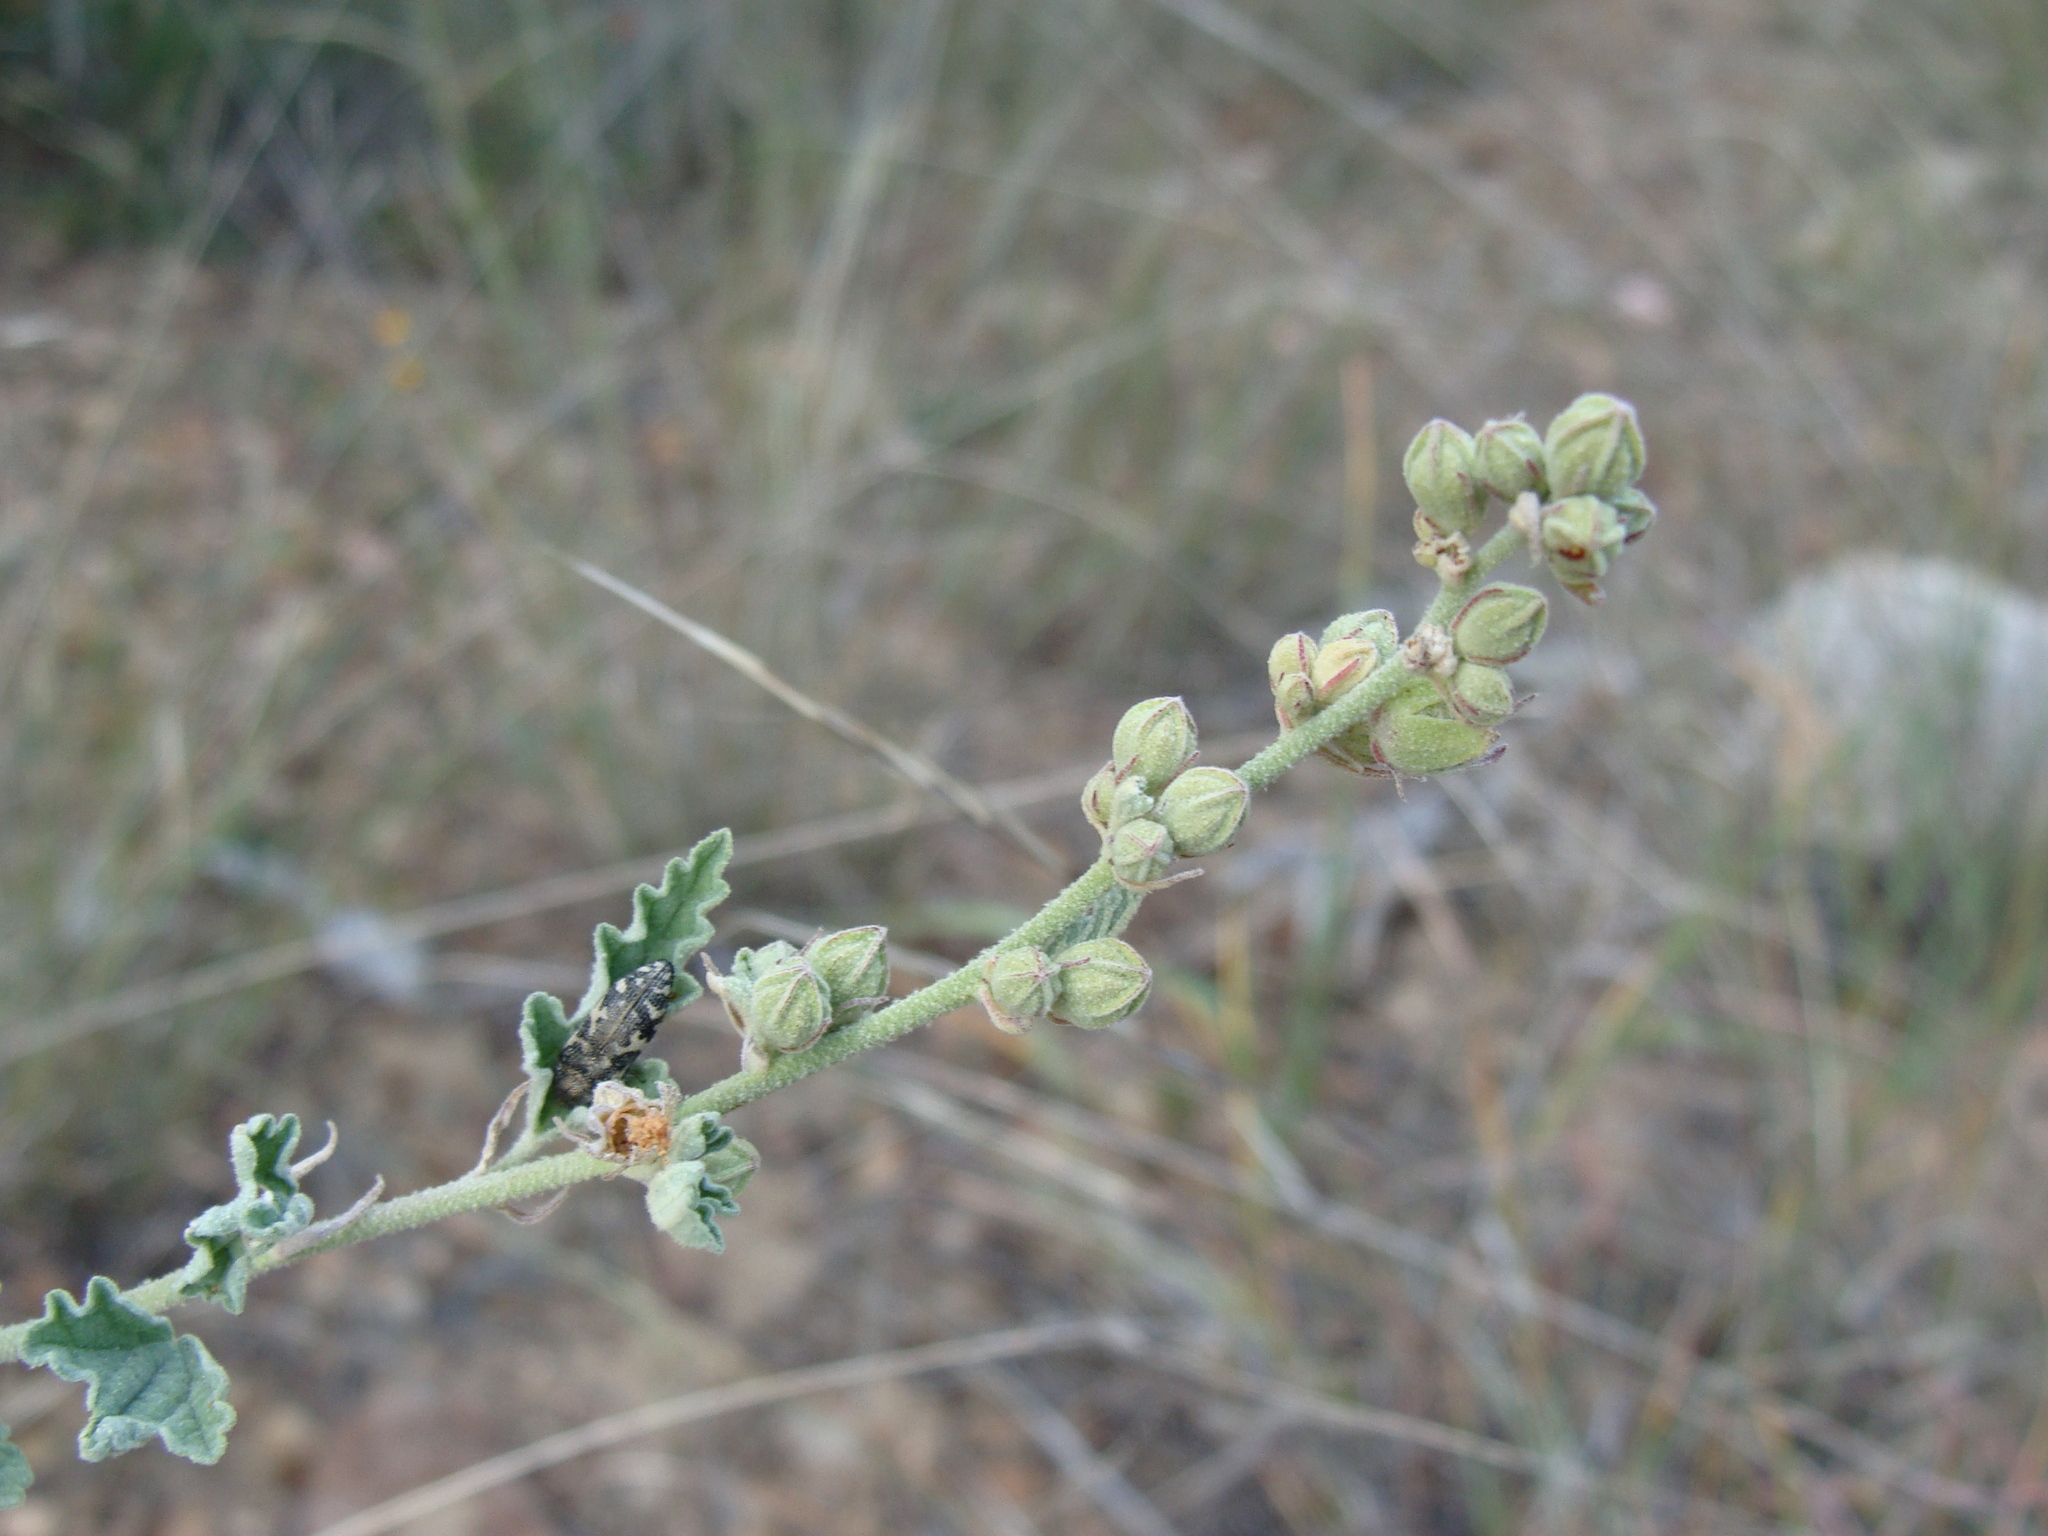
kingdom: Plantae
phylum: Tracheophyta
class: Magnoliopsida
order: Malvales
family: Malvaceae
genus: Sphaeralcea
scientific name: Sphaeralcea fendleri
